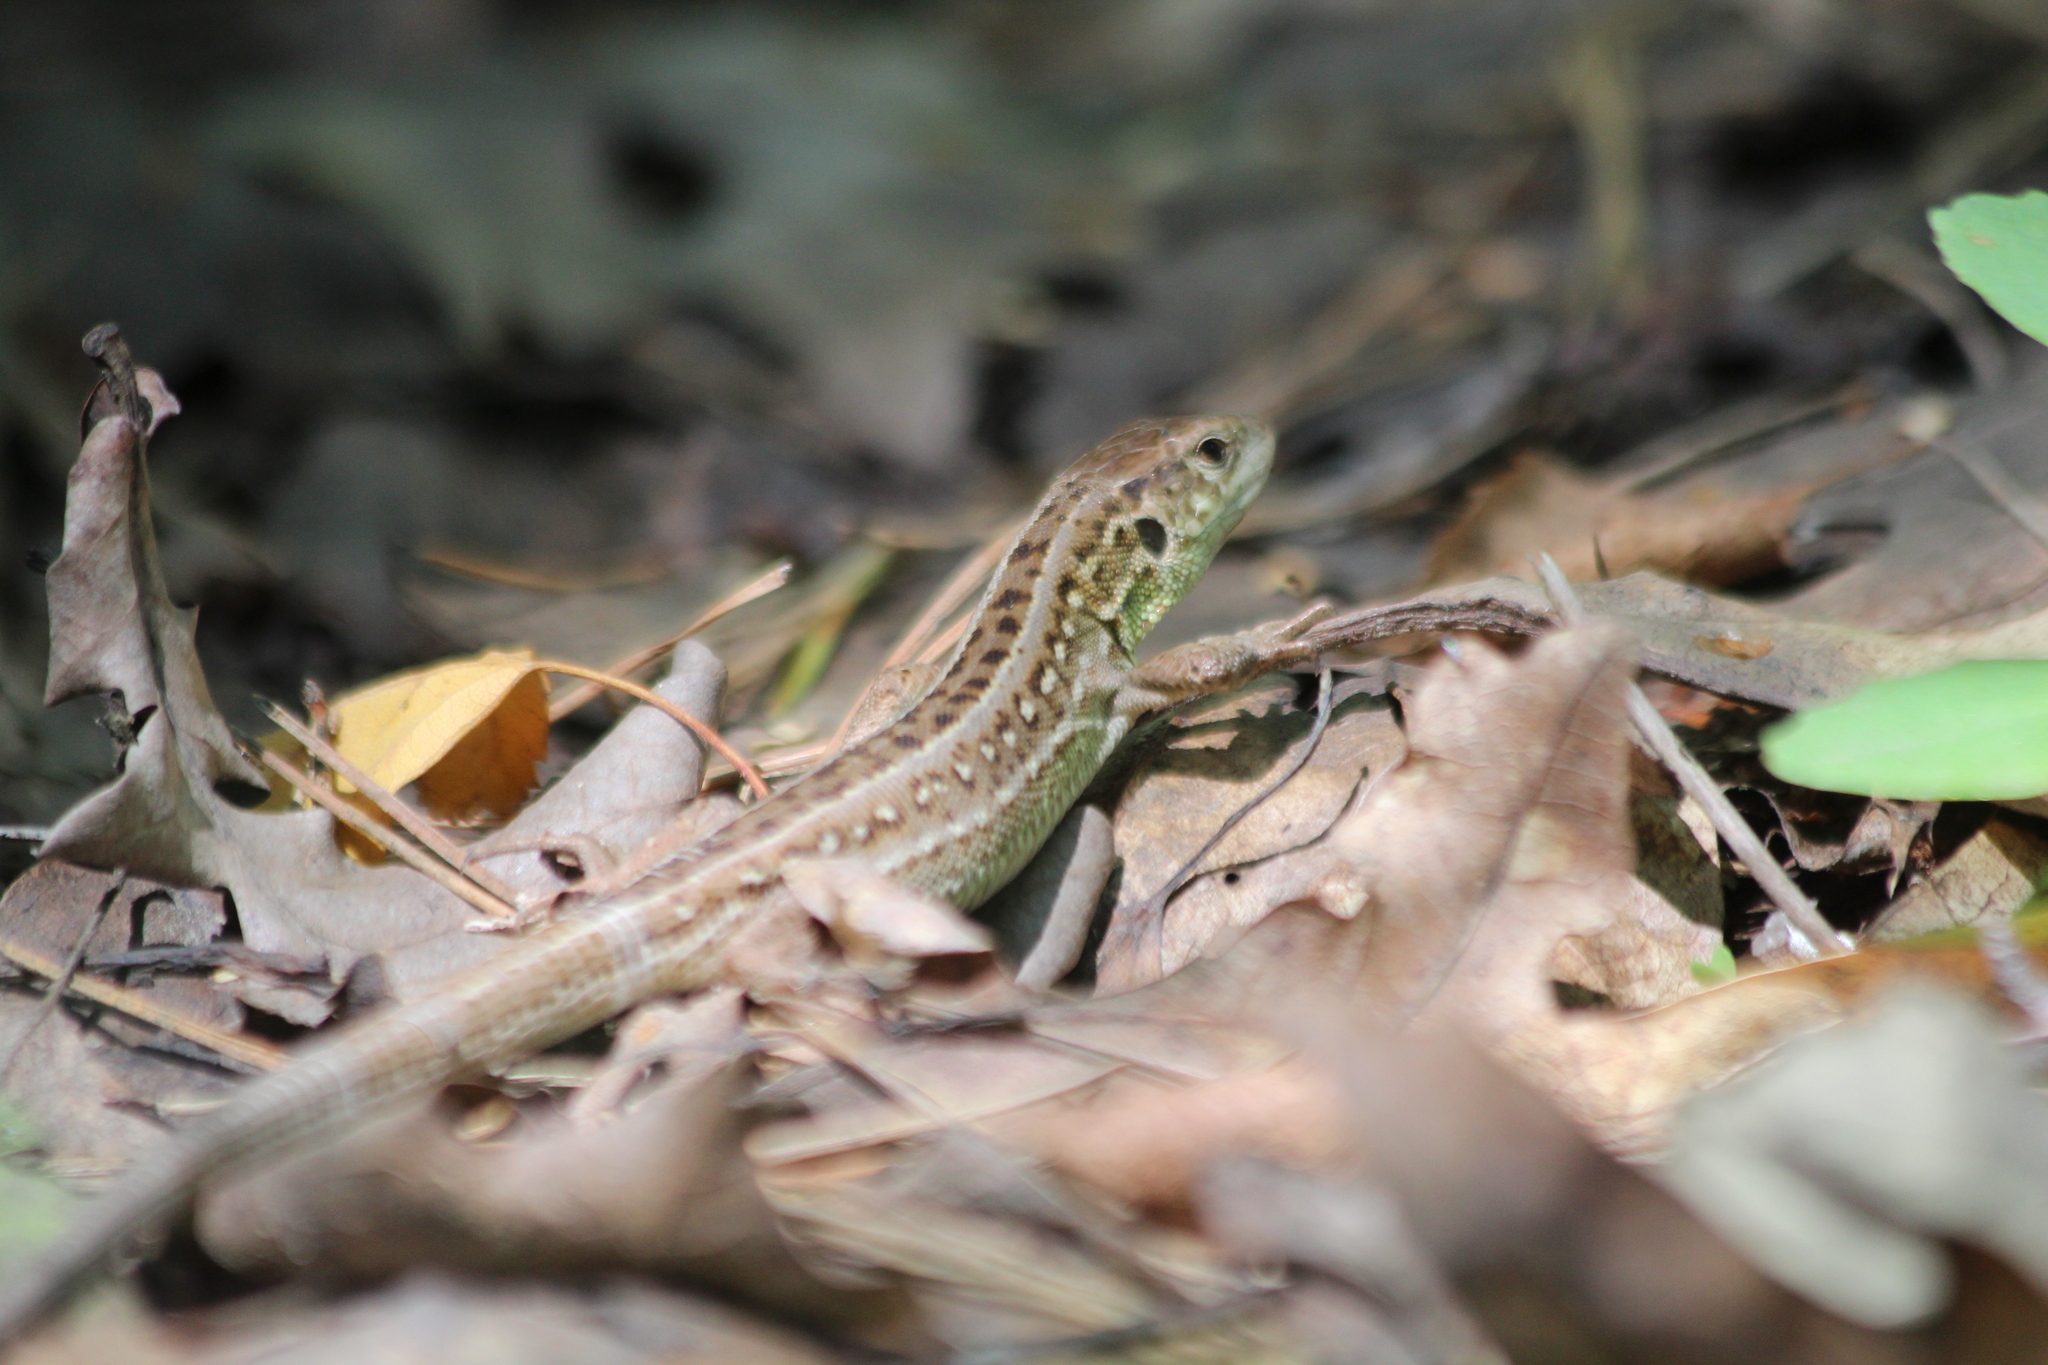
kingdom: Animalia
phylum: Chordata
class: Squamata
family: Lacertidae
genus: Lacerta
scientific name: Lacerta agilis
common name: Sand lizard
